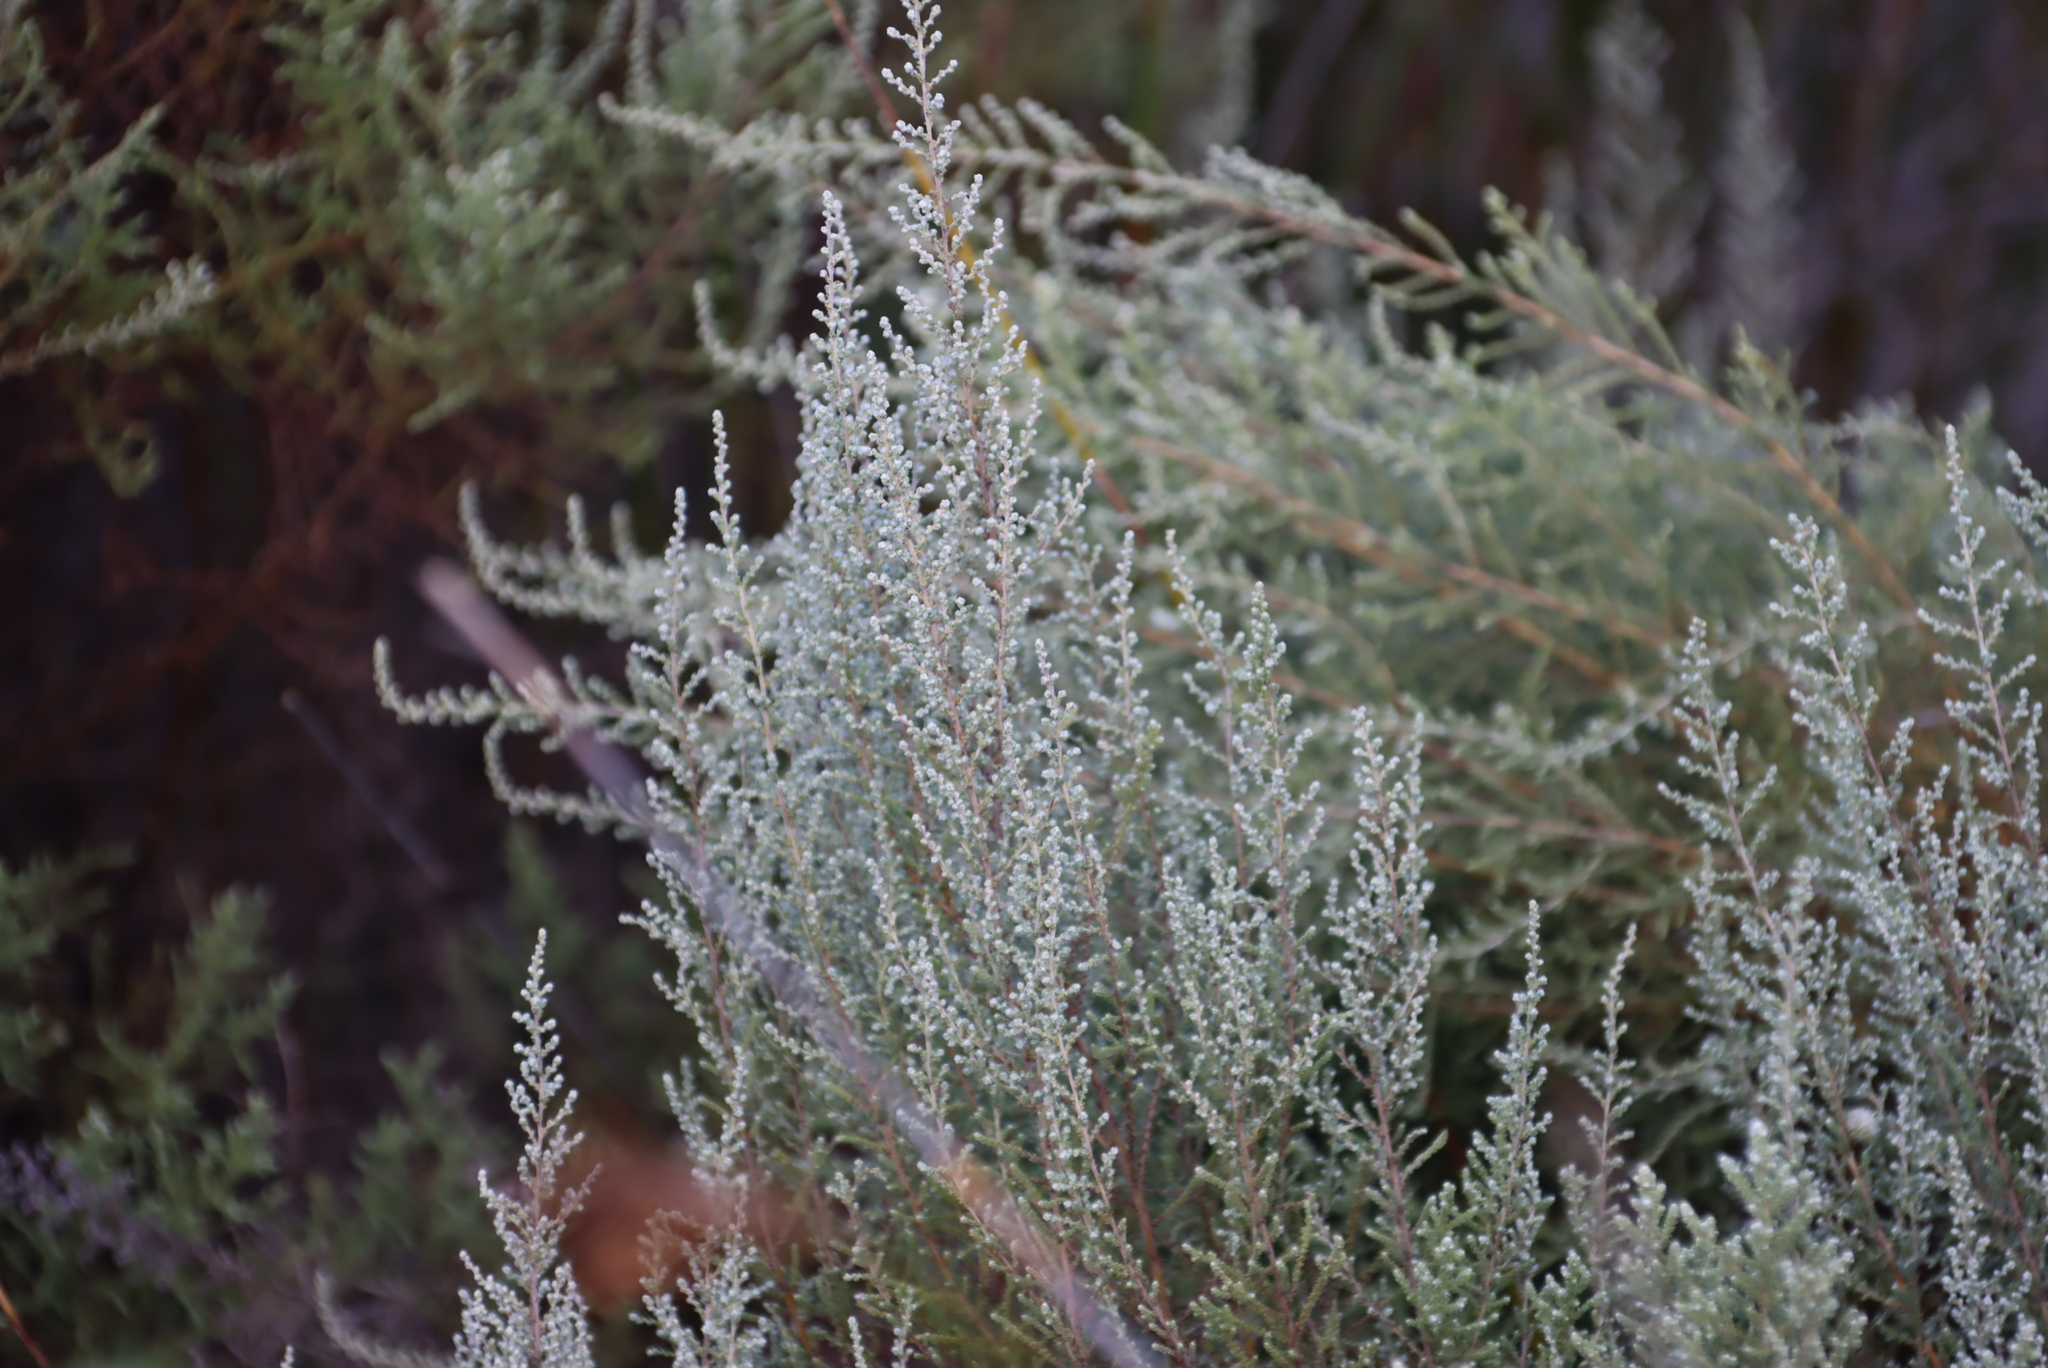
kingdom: Plantae
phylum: Tracheophyta
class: Magnoliopsida
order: Proteales
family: Proteaceae
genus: Leucadendron
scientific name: Leucadendron salignum
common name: Common sunshine conebush
